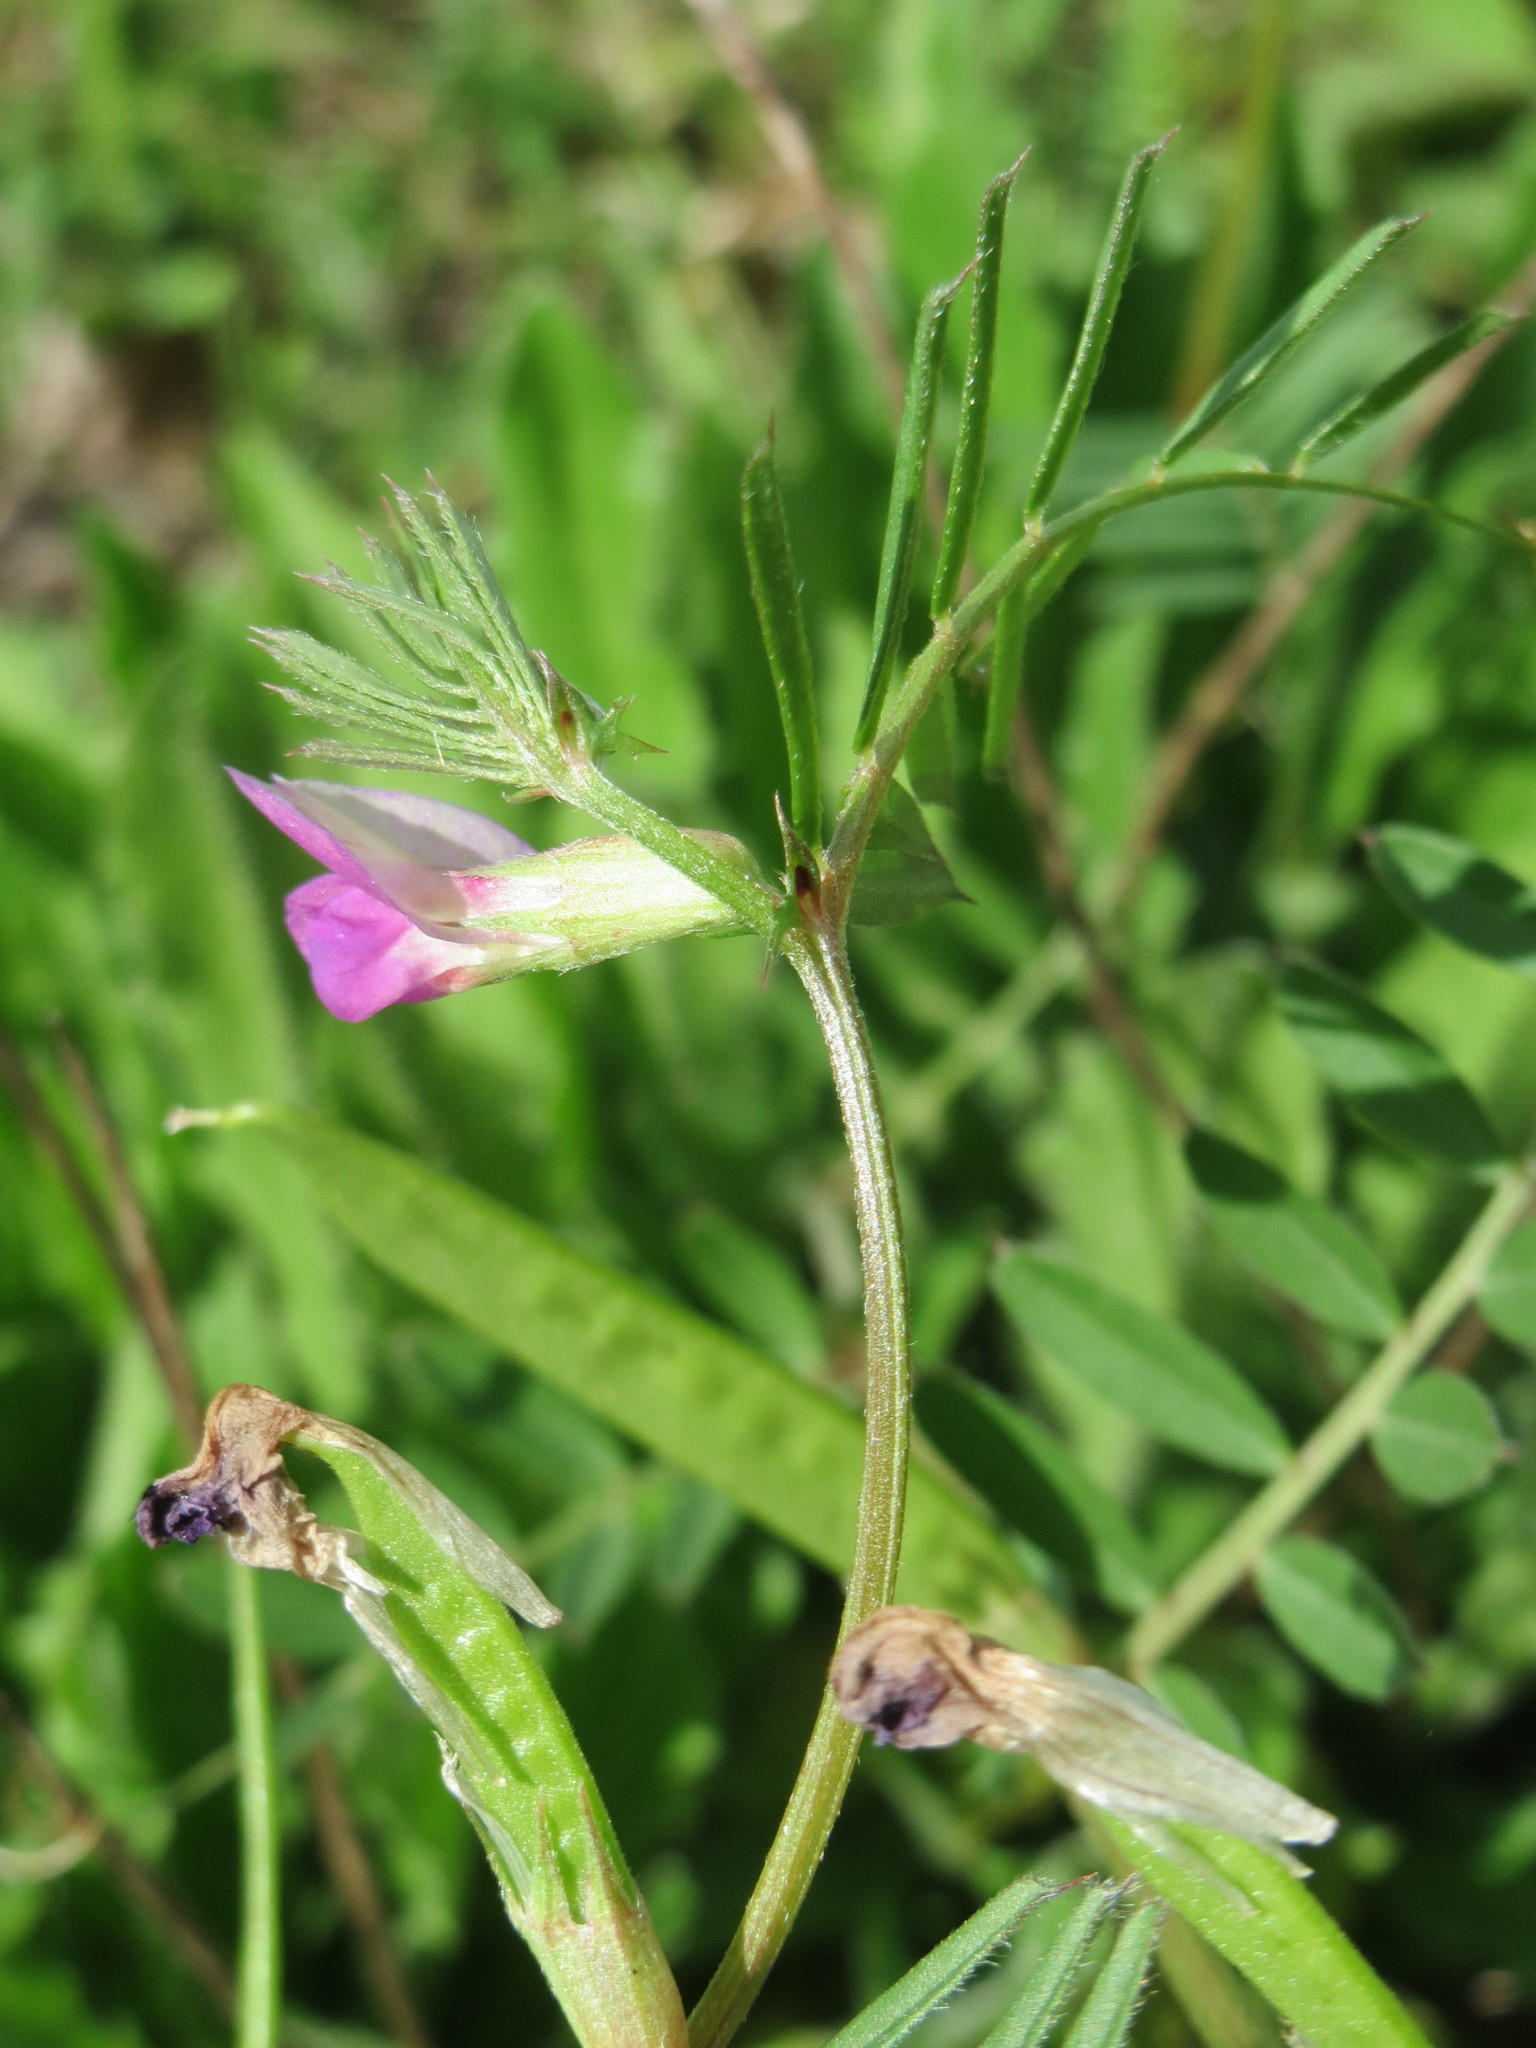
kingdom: Plantae
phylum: Tracheophyta
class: Magnoliopsida
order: Fabales
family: Fabaceae
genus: Vicia
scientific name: Vicia sativa
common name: Garden vetch
